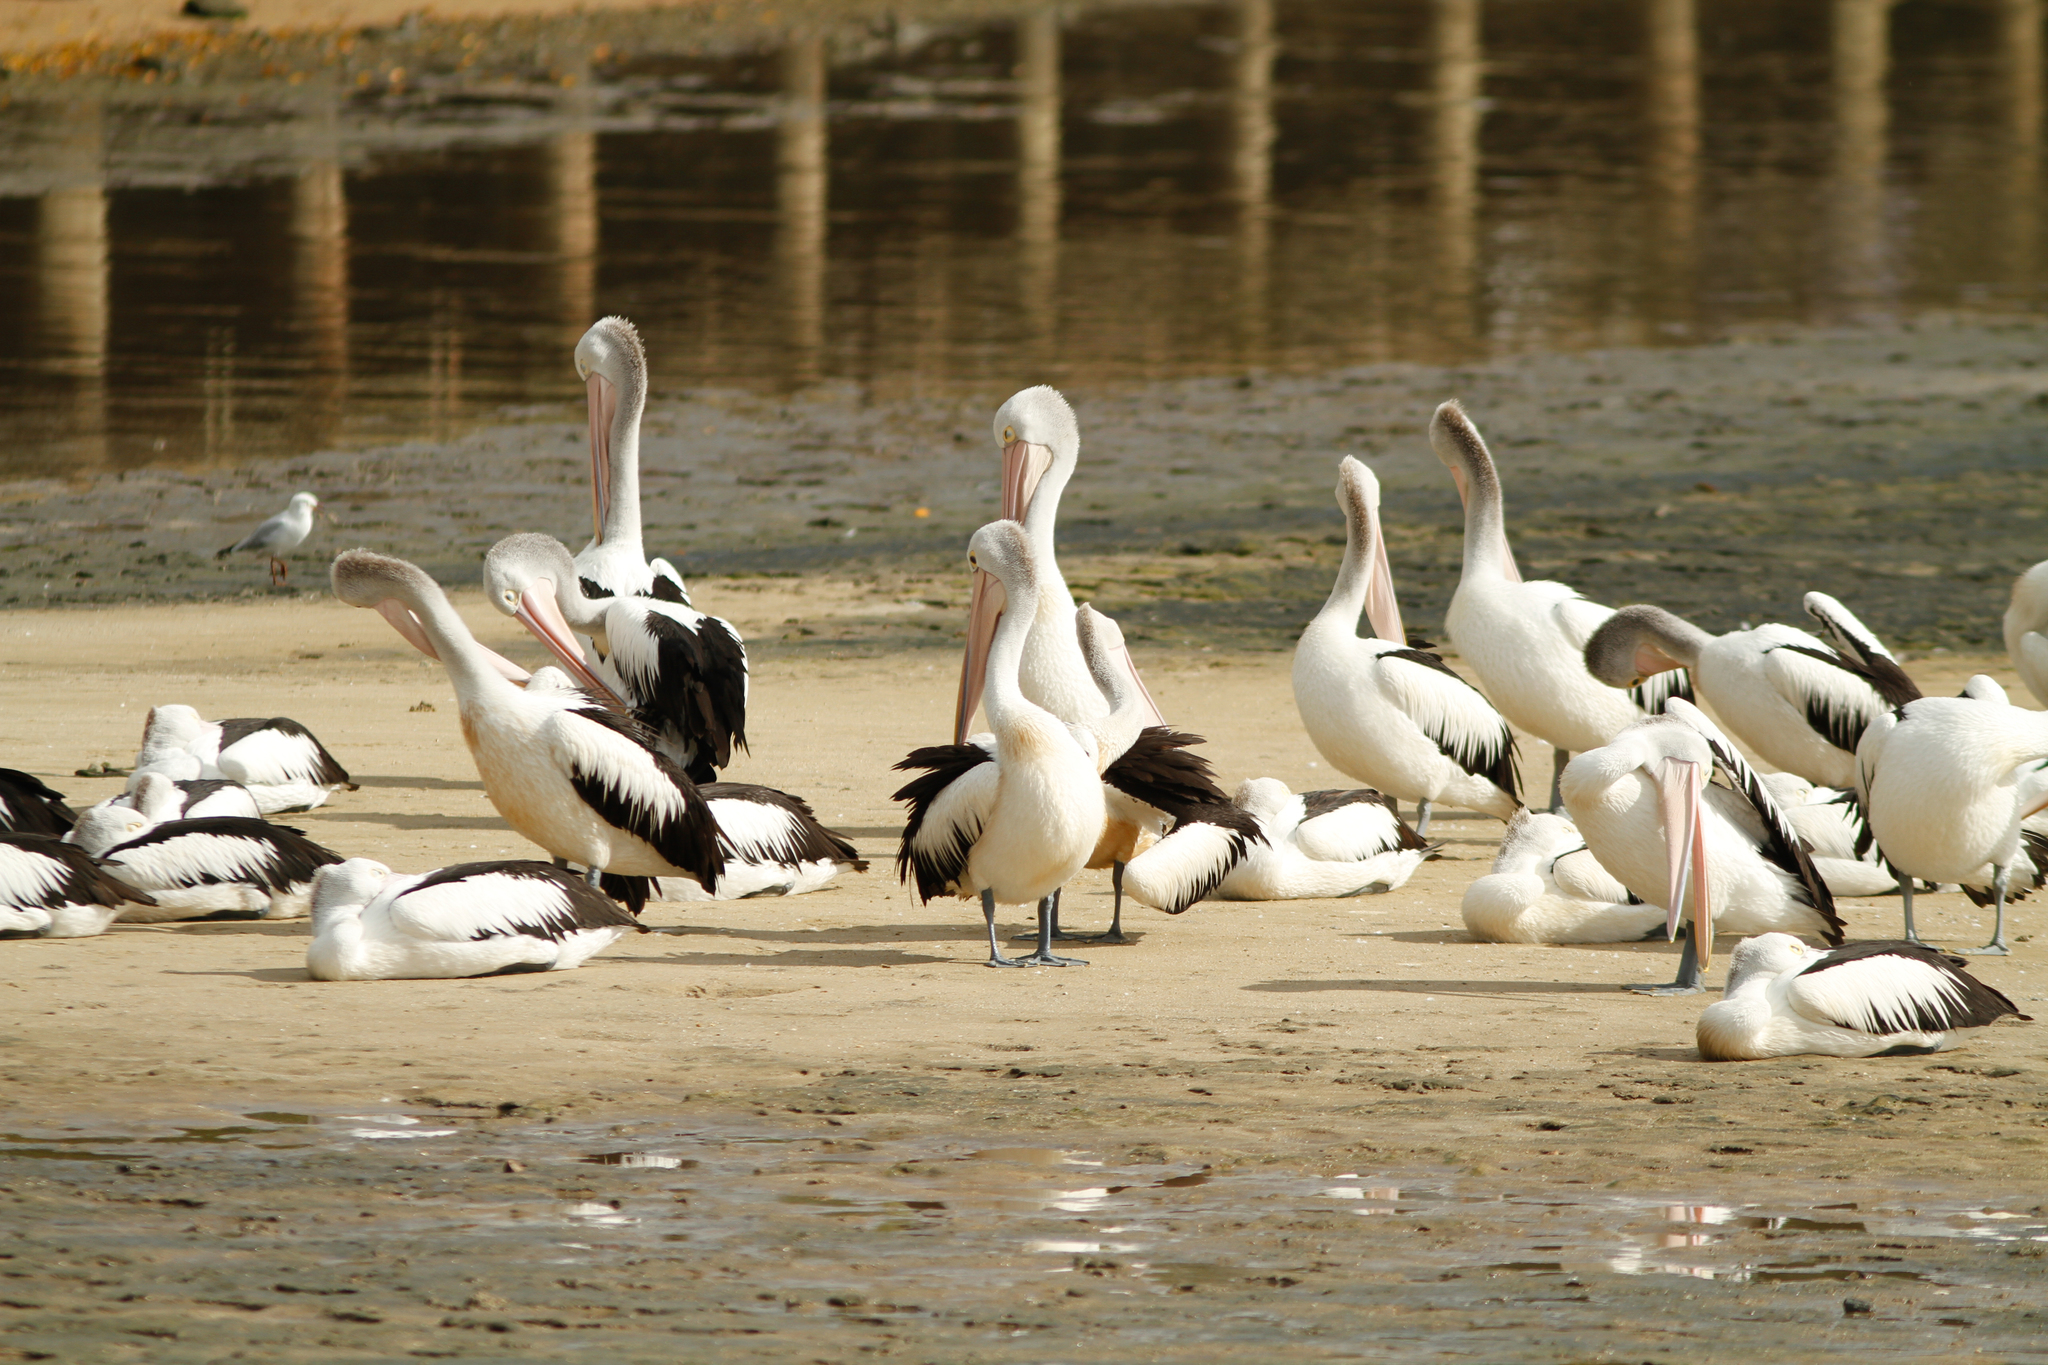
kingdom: Animalia
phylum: Chordata
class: Aves
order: Pelecaniformes
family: Pelecanidae
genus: Pelecanus
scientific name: Pelecanus conspicillatus
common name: Australian pelican
